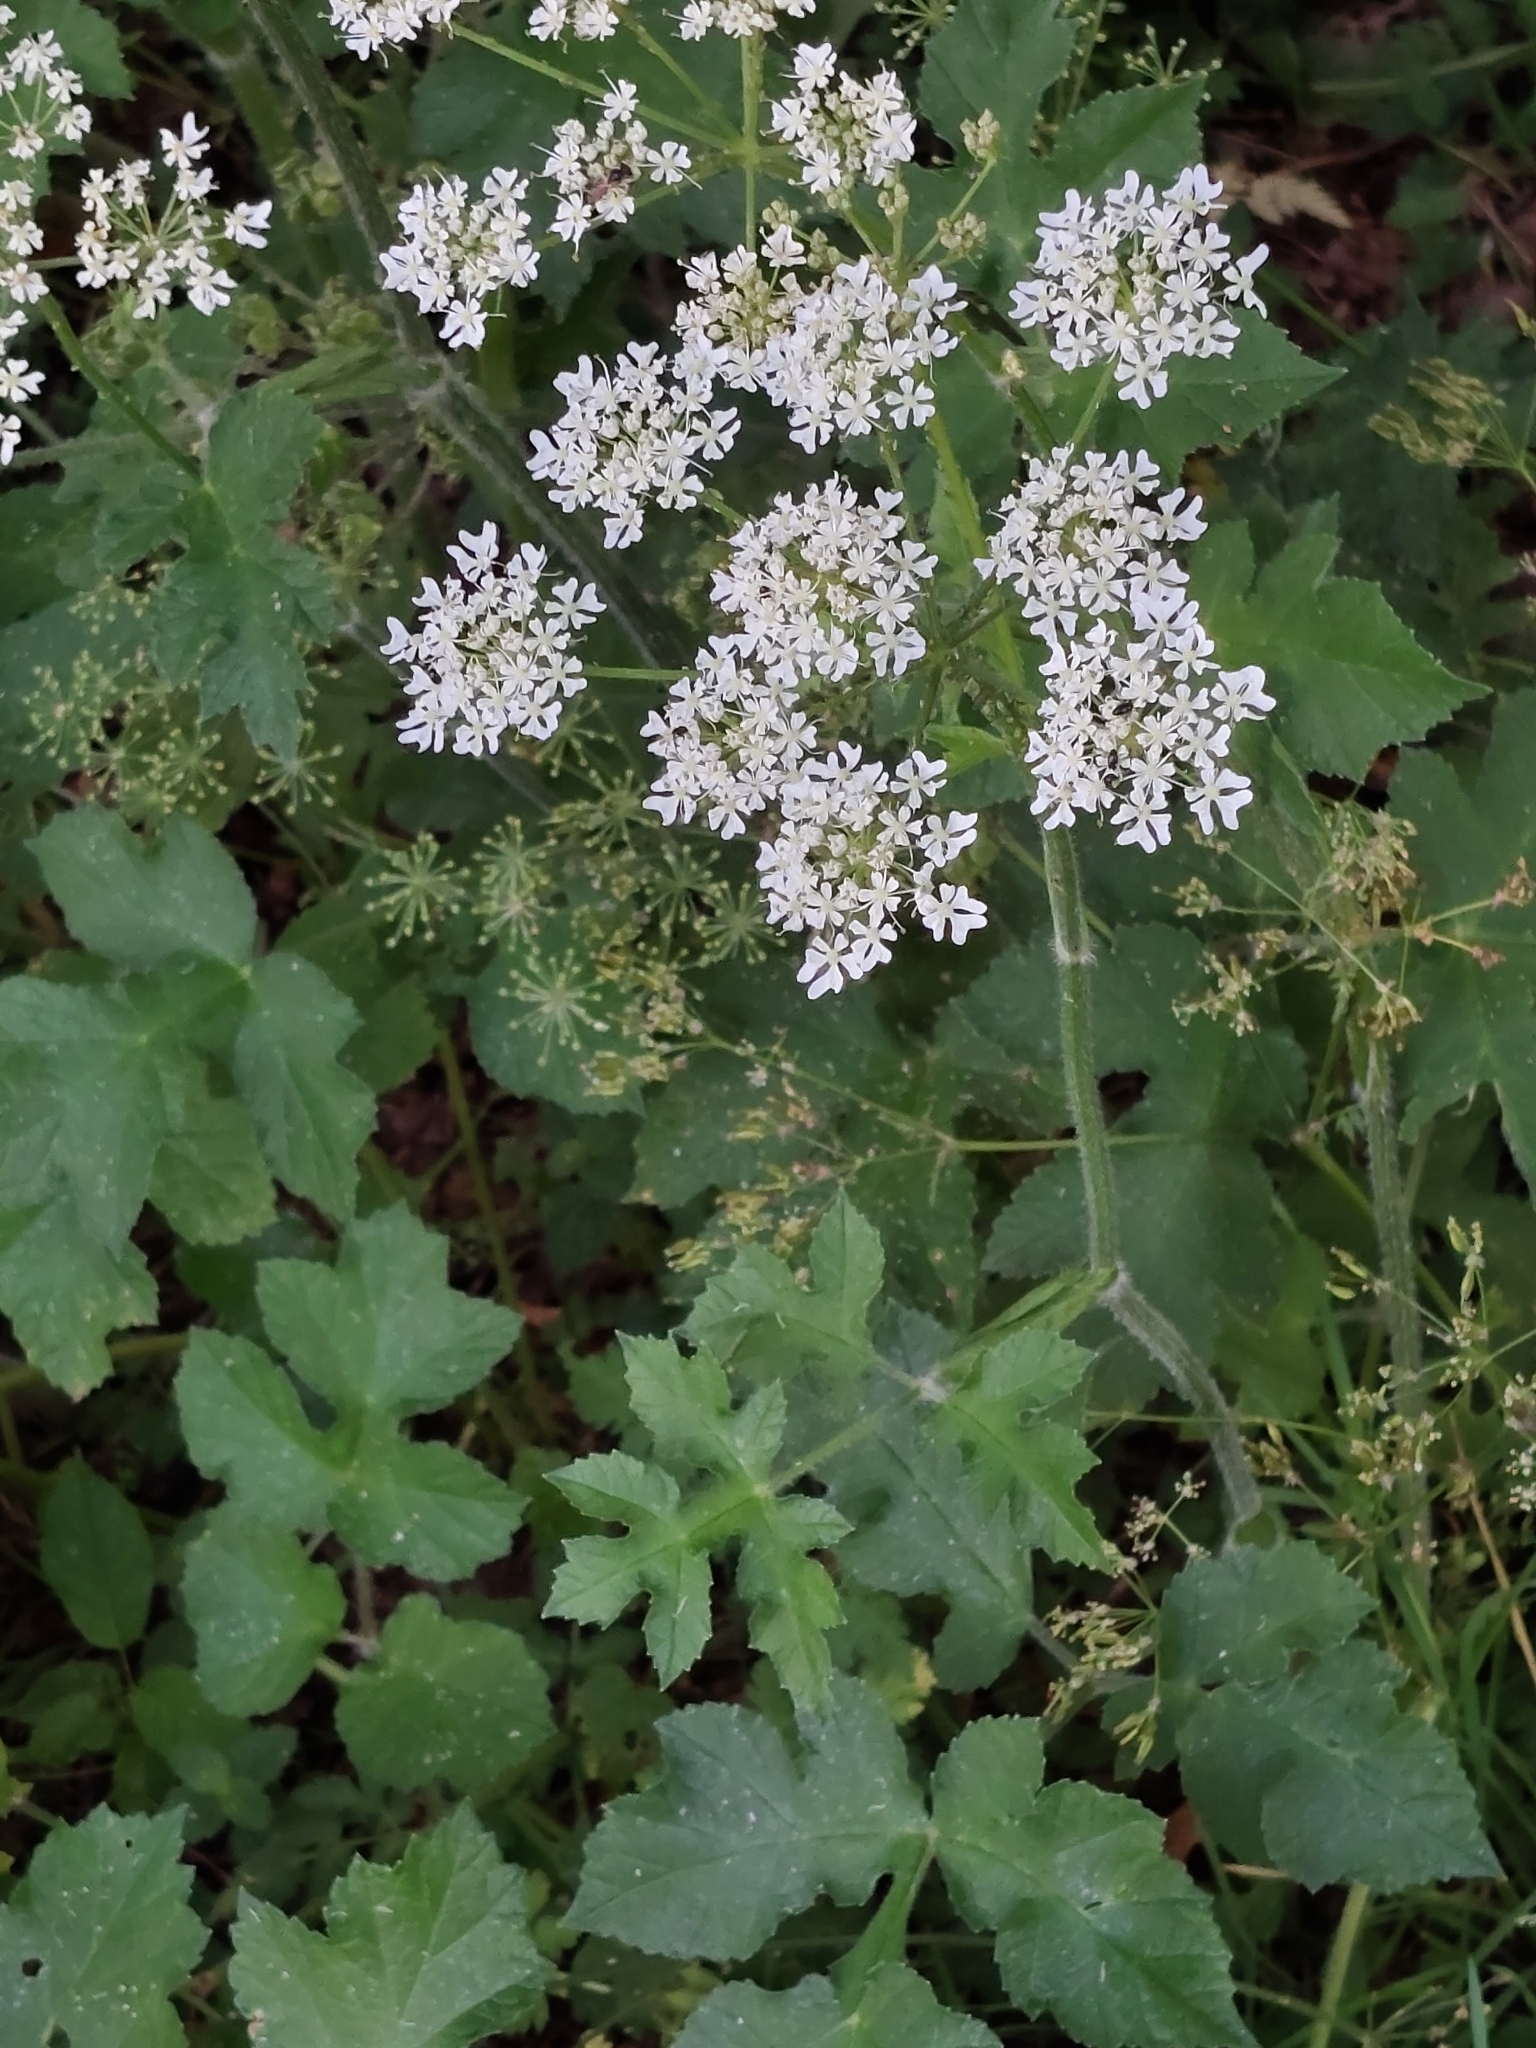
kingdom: Plantae
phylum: Tracheophyta
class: Magnoliopsida
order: Apiales
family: Apiaceae
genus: Heracleum
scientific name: Heracleum sphondylium
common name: Hogweed
